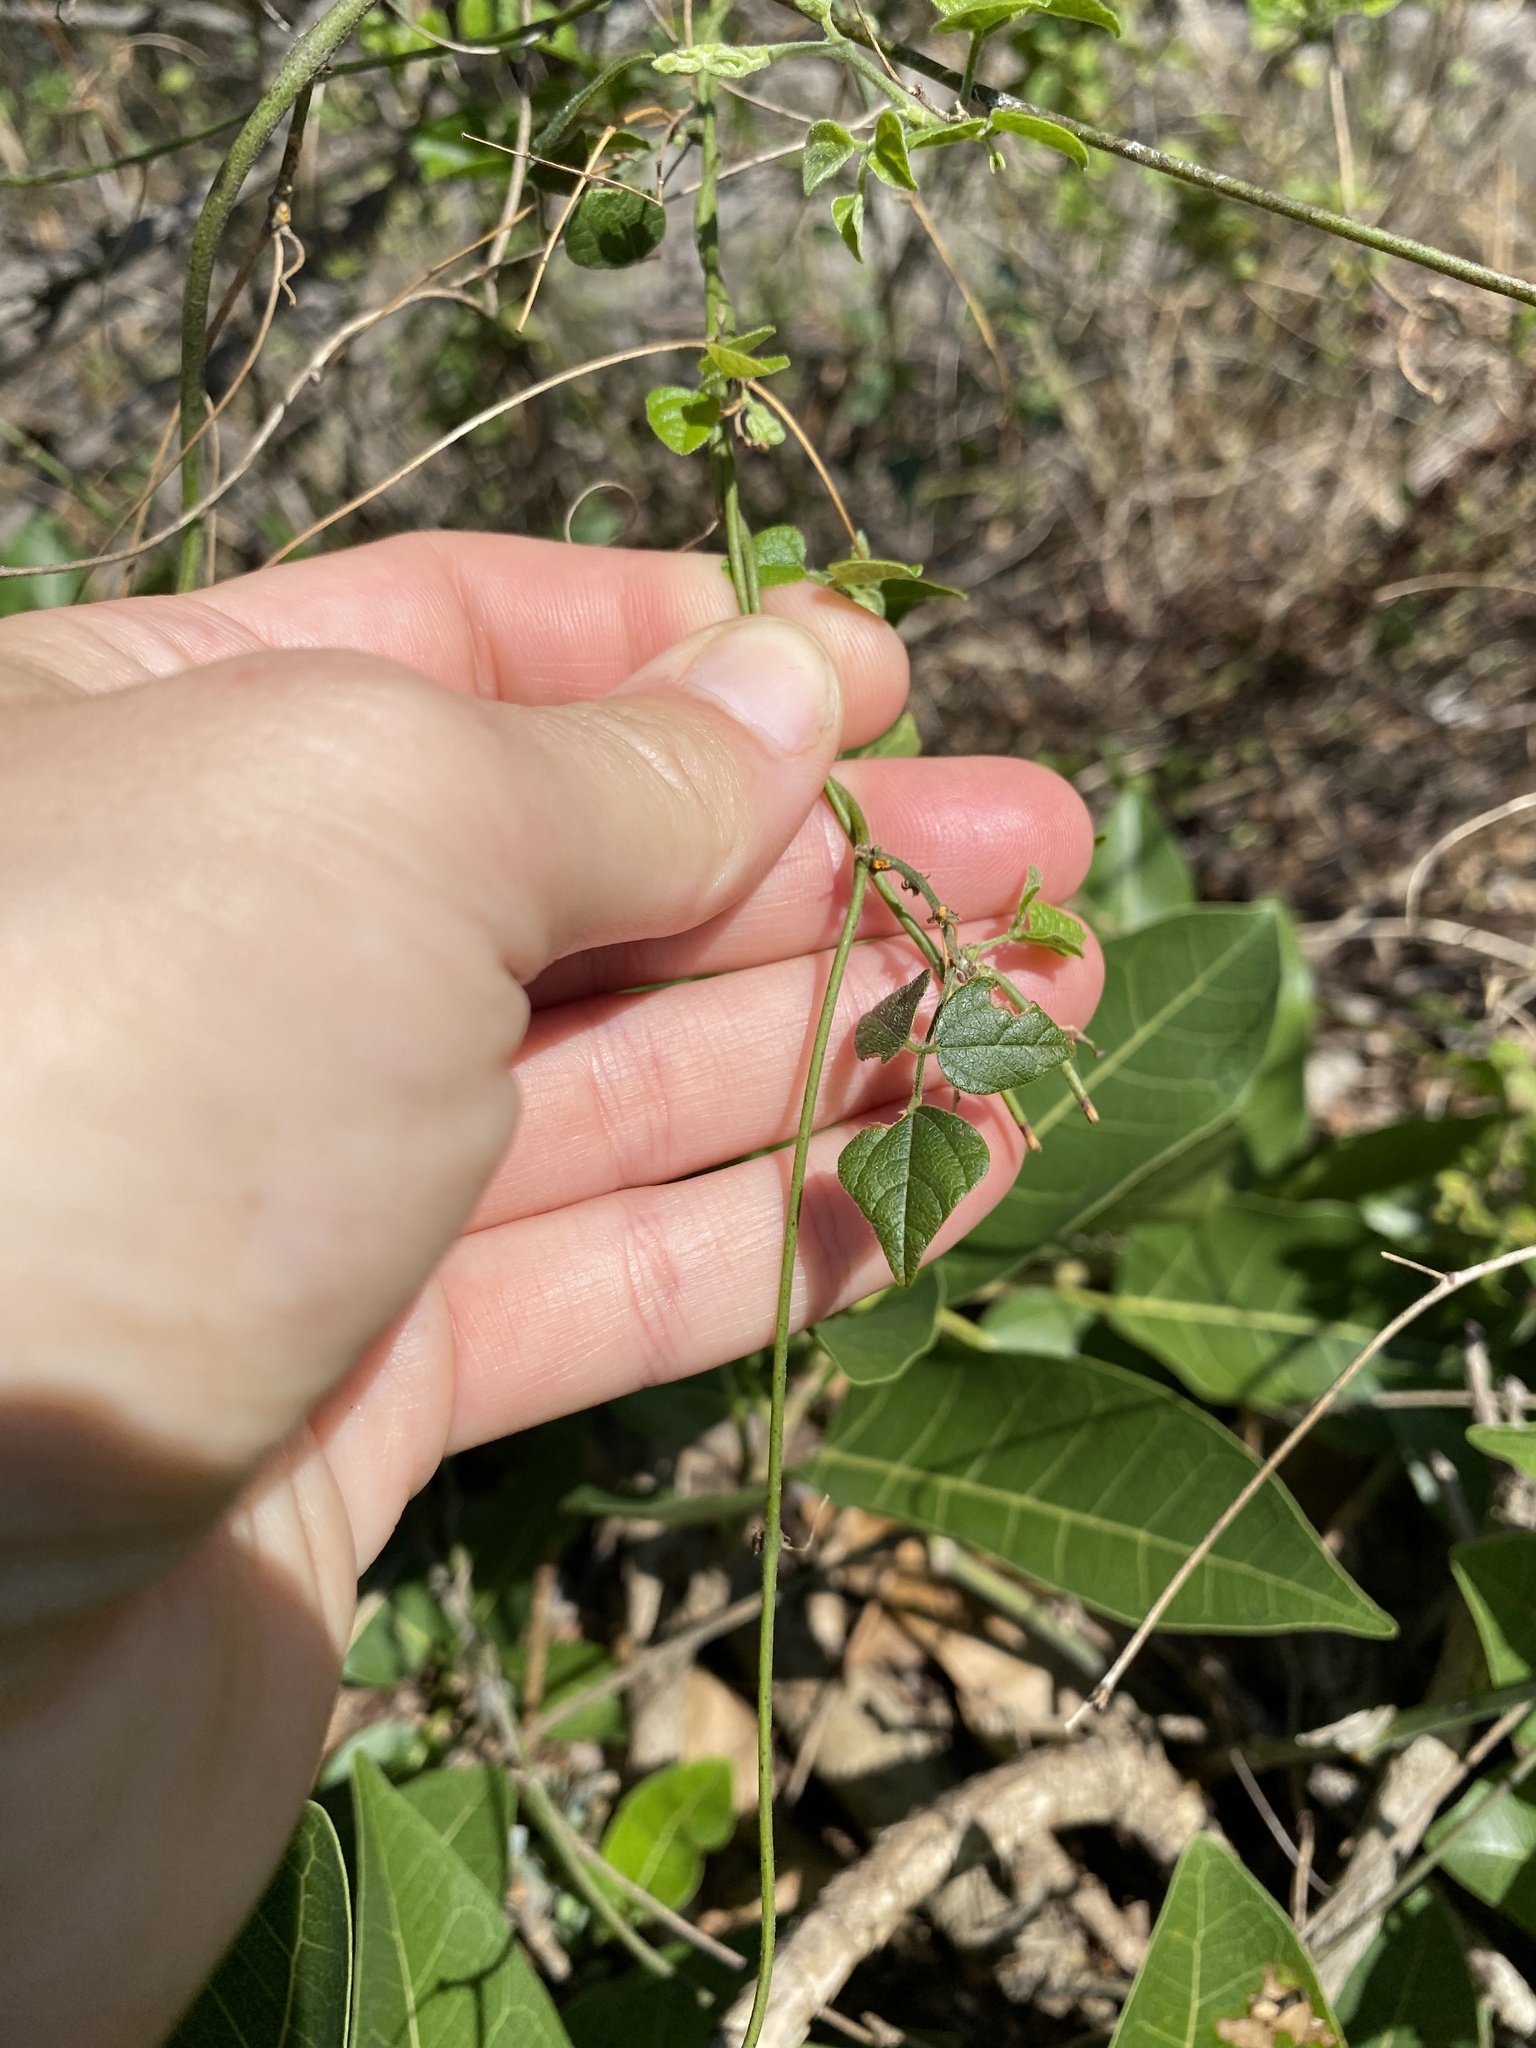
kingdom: Plantae
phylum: Tracheophyta
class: Magnoliopsida
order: Fabales
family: Fabaceae
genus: Rhynchosia
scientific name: Rhynchosia caribaea
